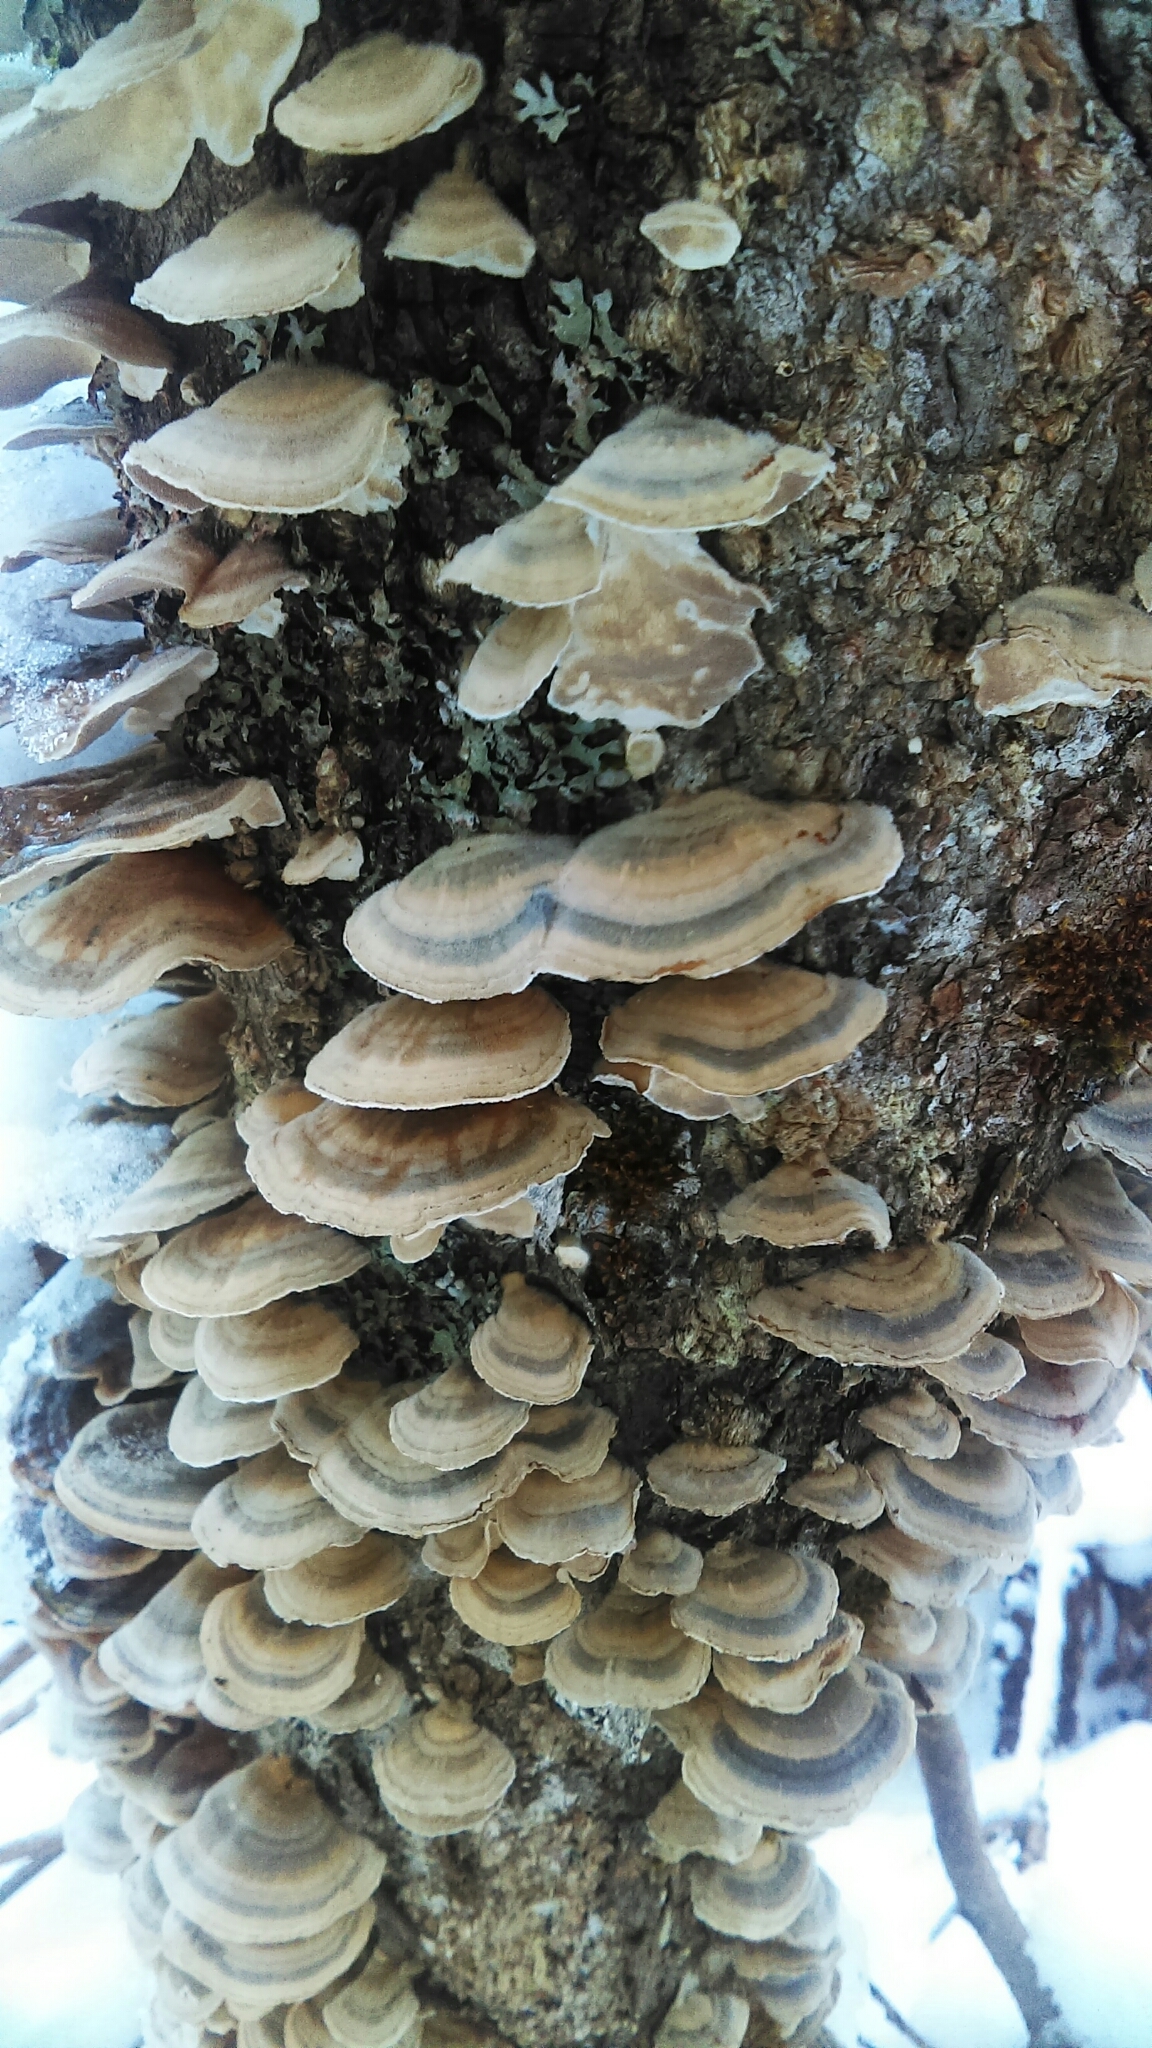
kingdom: Fungi
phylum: Basidiomycota
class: Agaricomycetes
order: Polyporales
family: Polyporaceae
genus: Trametes
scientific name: Trametes versicolor
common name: Turkeytail
